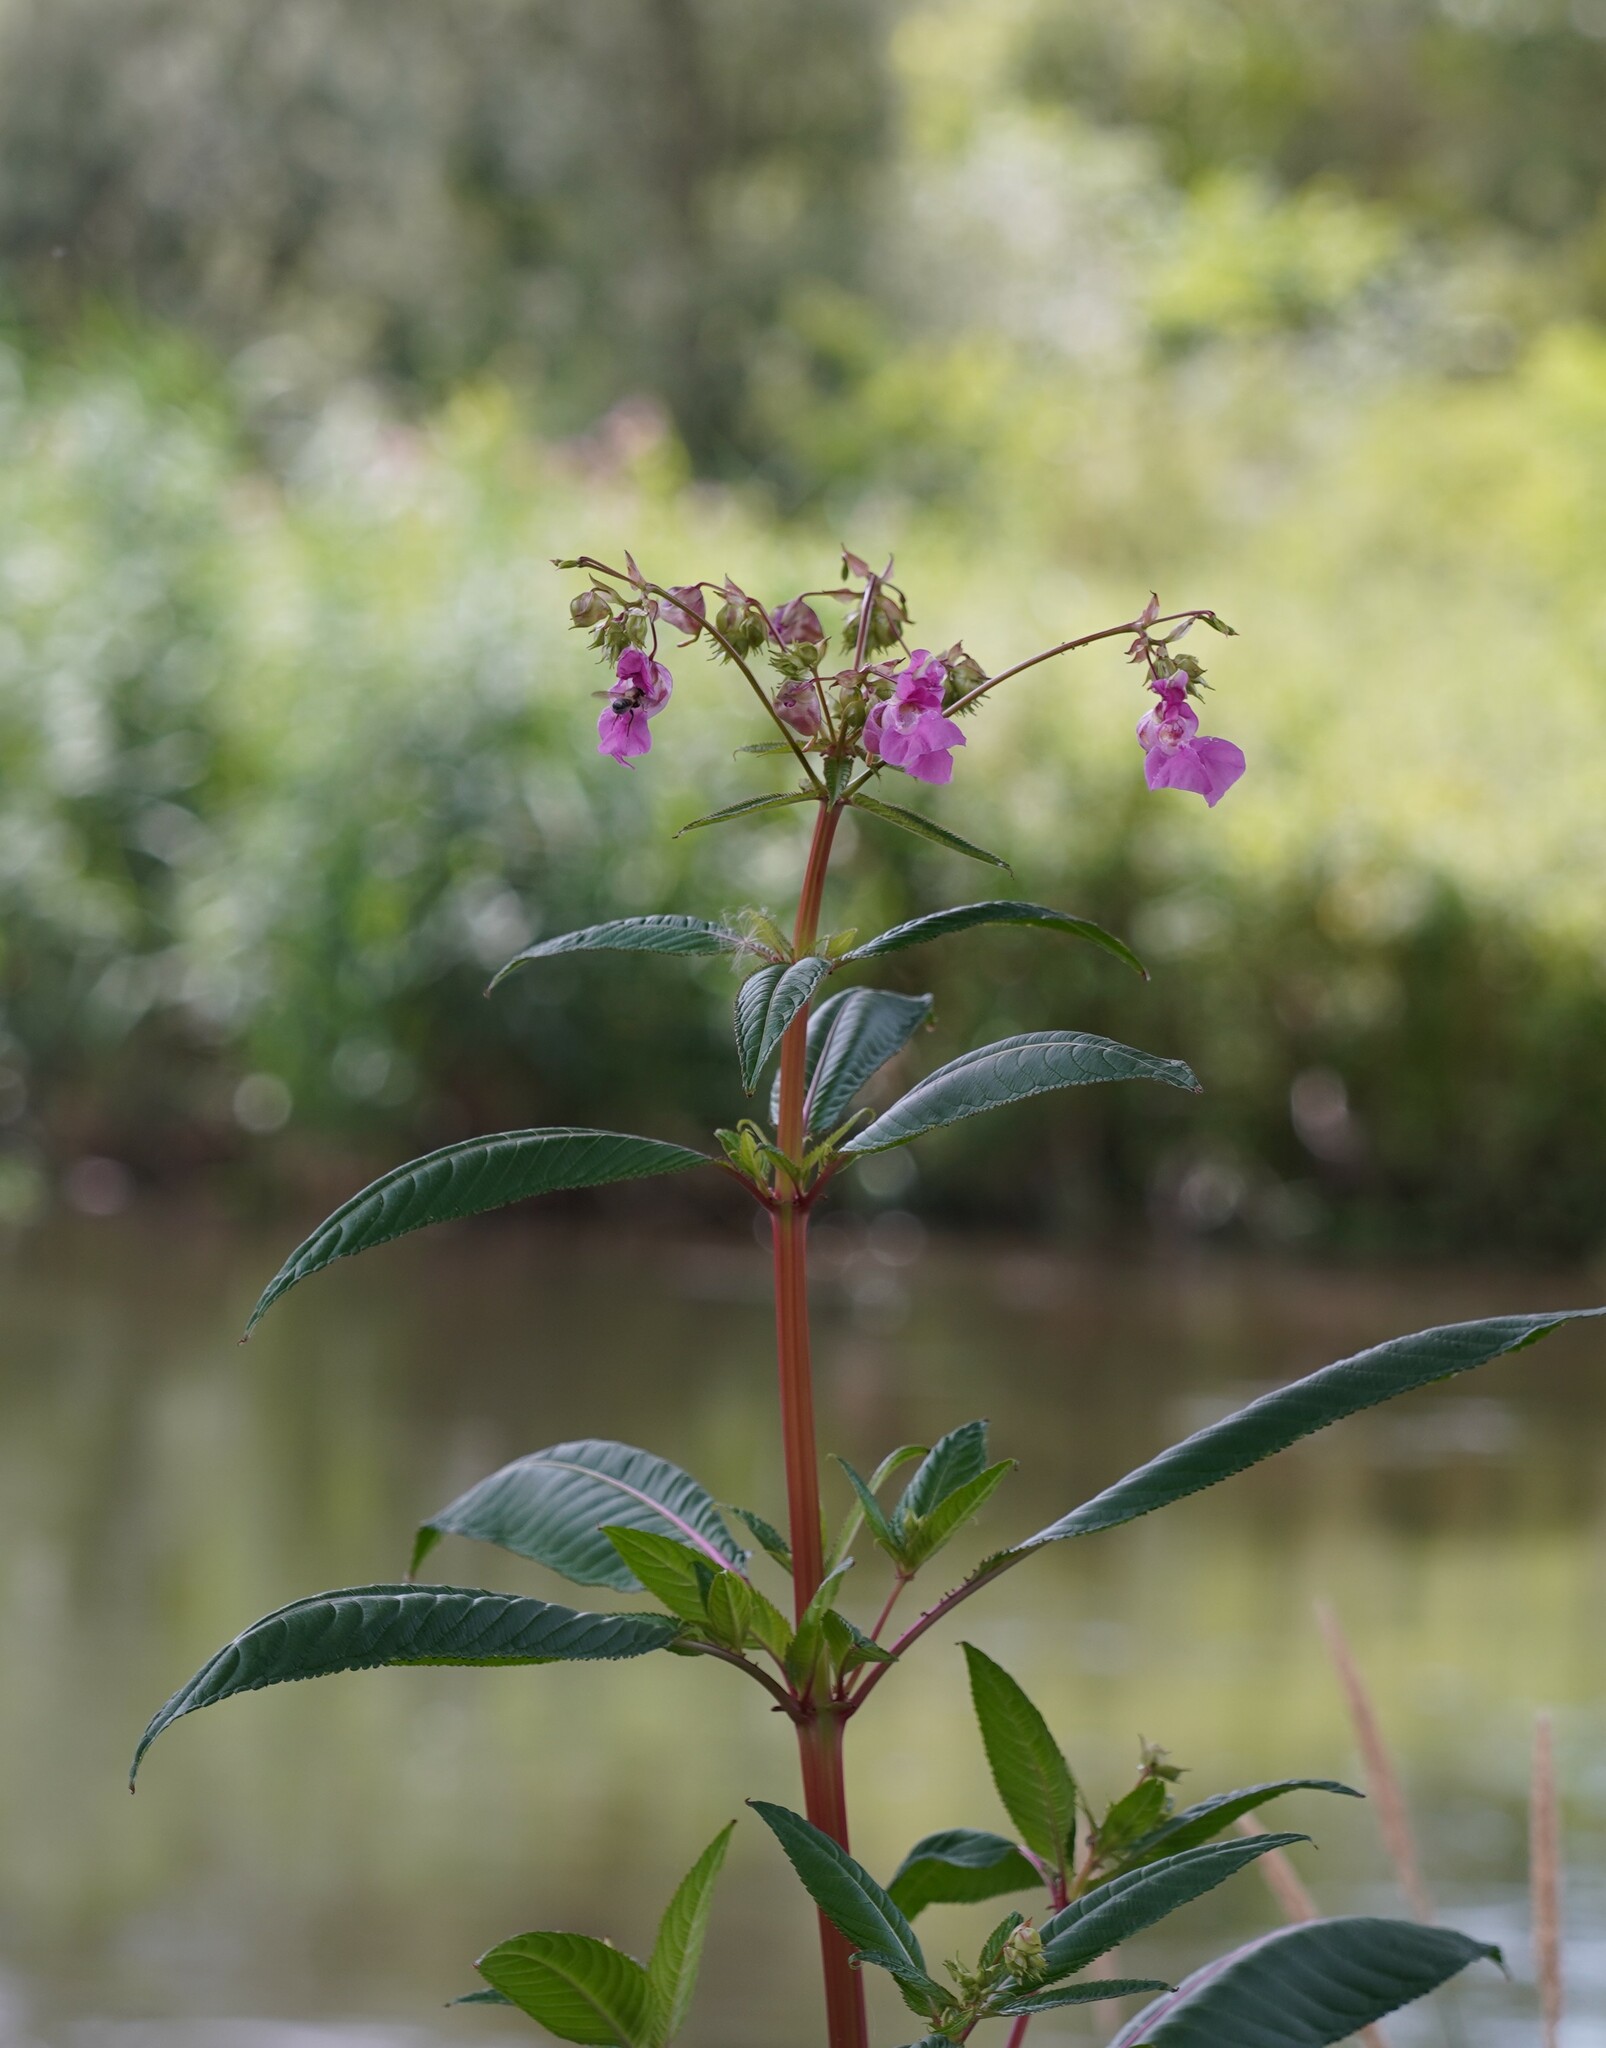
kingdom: Plantae
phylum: Tracheophyta
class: Magnoliopsida
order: Ericales
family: Balsaminaceae
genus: Impatiens
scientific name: Impatiens glandulifera
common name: Himalayan balsam
